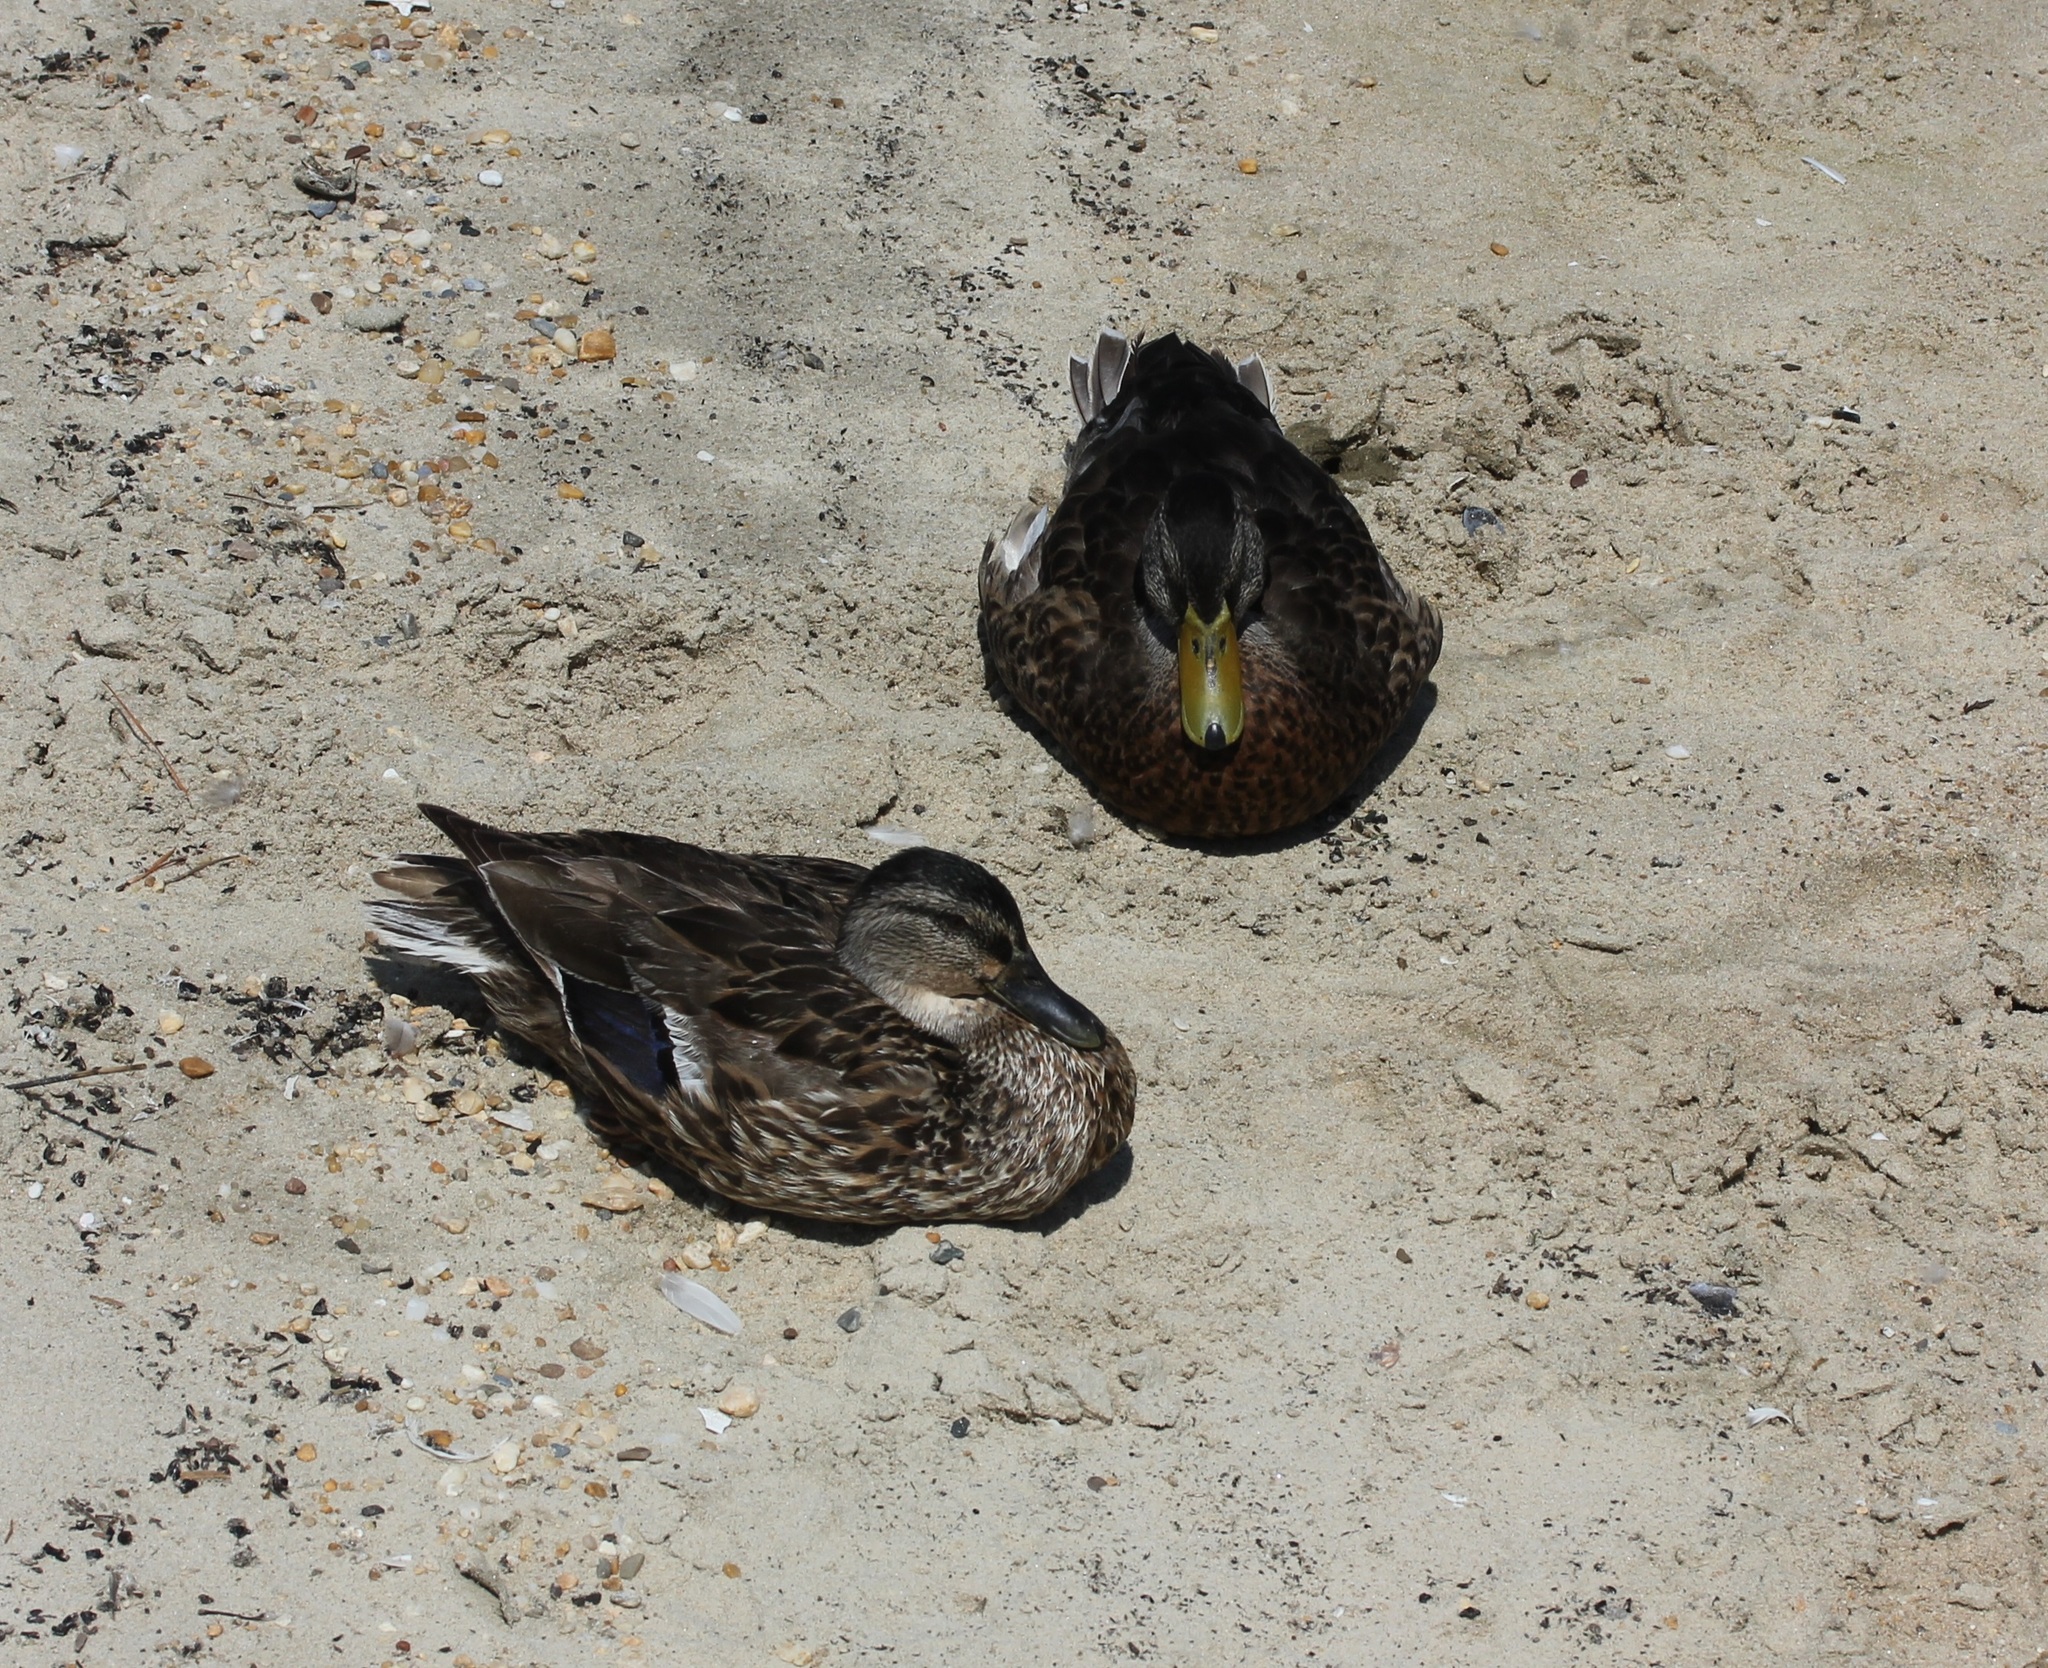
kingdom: Animalia
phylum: Chordata
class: Aves
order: Anseriformes
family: Anatidae
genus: Anas
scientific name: Anas platyrhynchos
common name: Mallard
